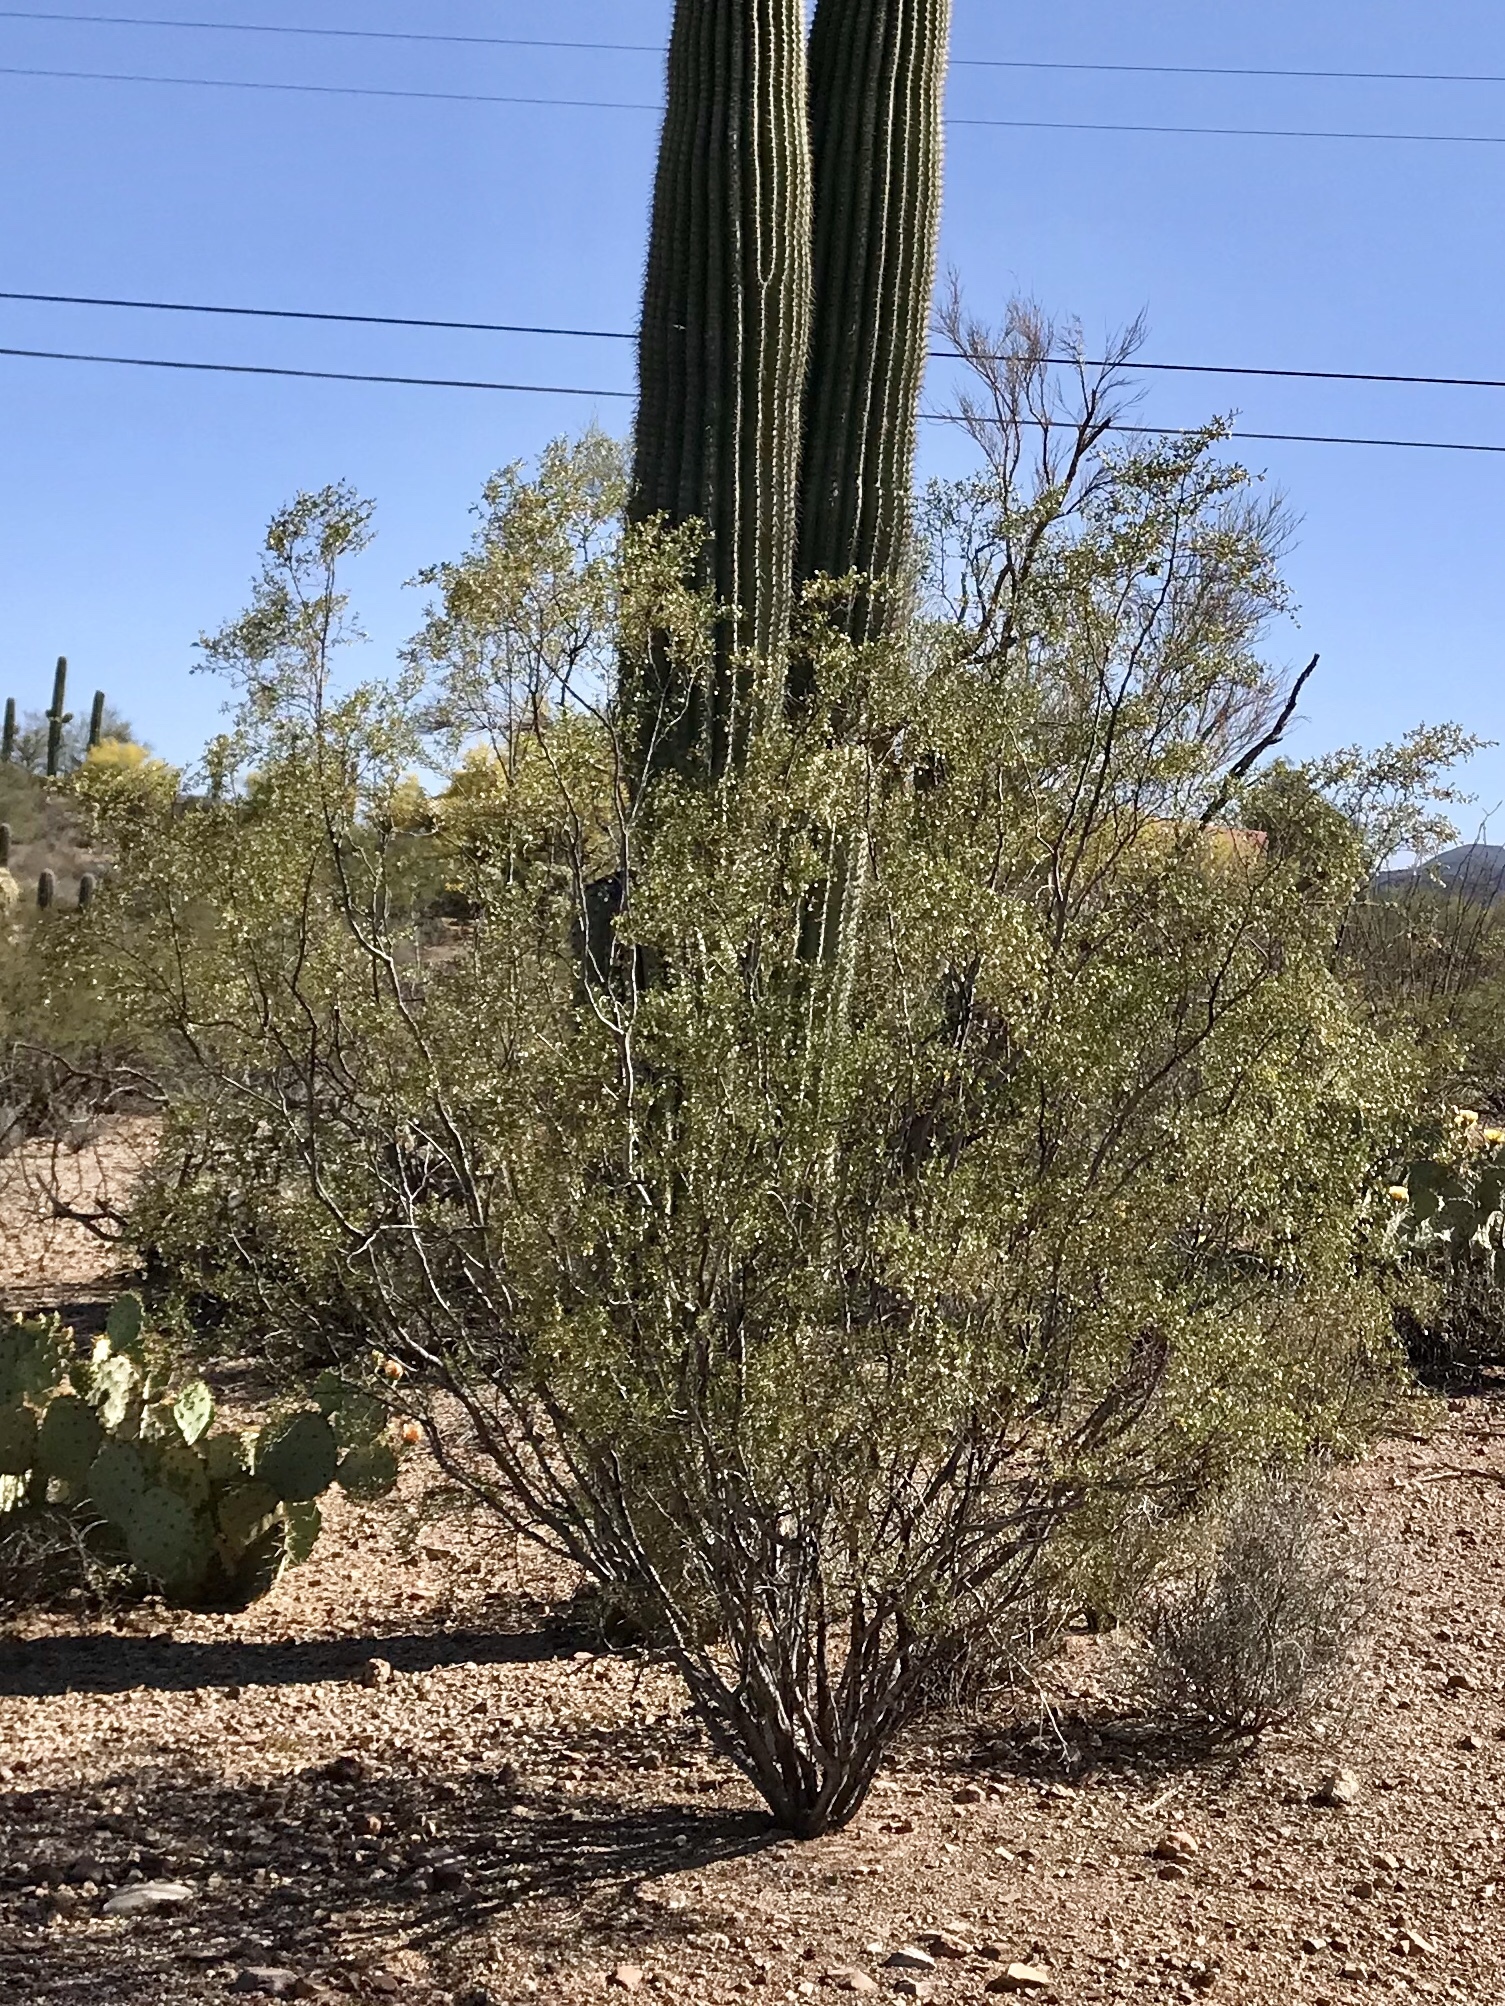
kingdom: Plantae
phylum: Tracheophyta
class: Magnoliopsida
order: Zygophyllales
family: Zygophyllaceae
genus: Larrea
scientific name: Larrea tridentata
